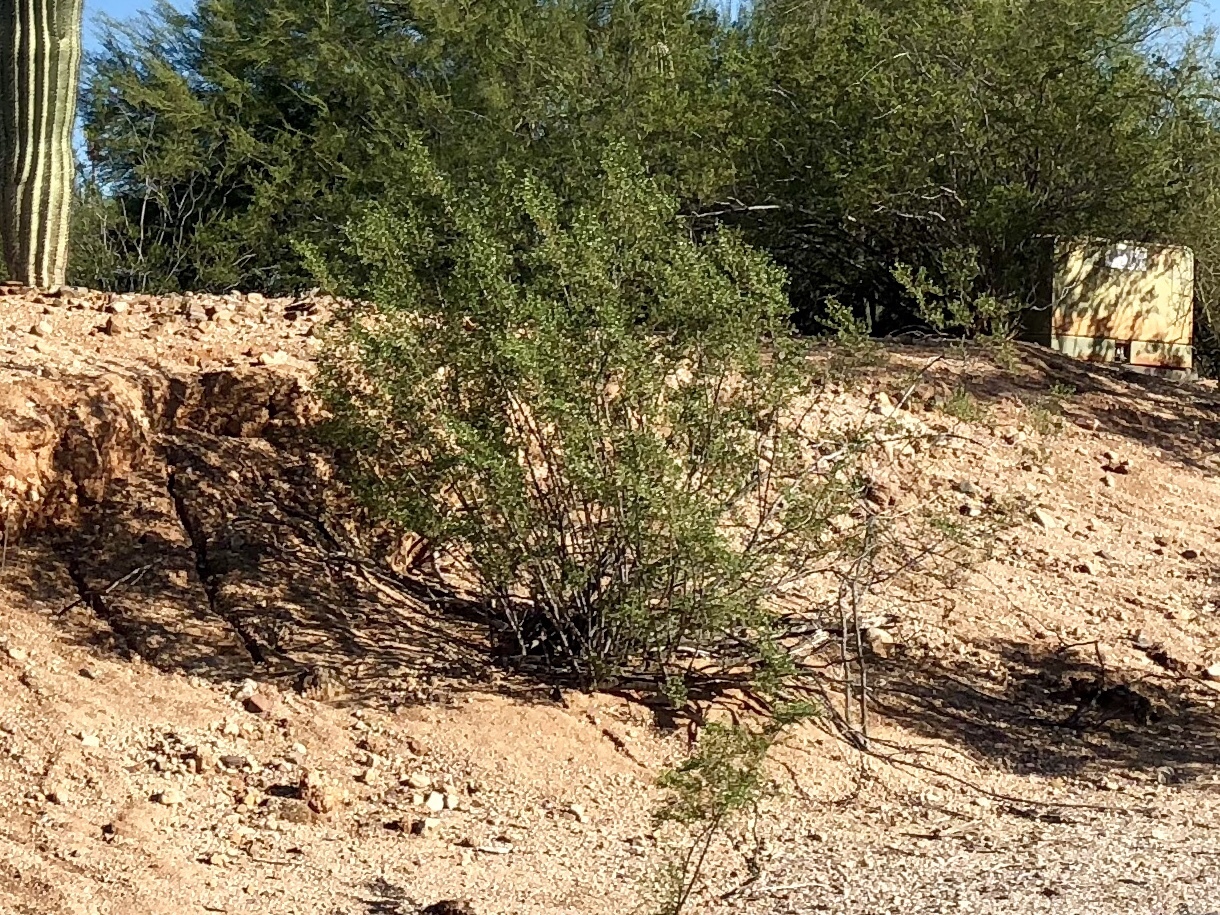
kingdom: Plantae
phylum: Tracheophyta
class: Magnoliopsida
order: Zygophyllales
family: Zygophyllaceae
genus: Larrea
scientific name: Larrea tridentata
